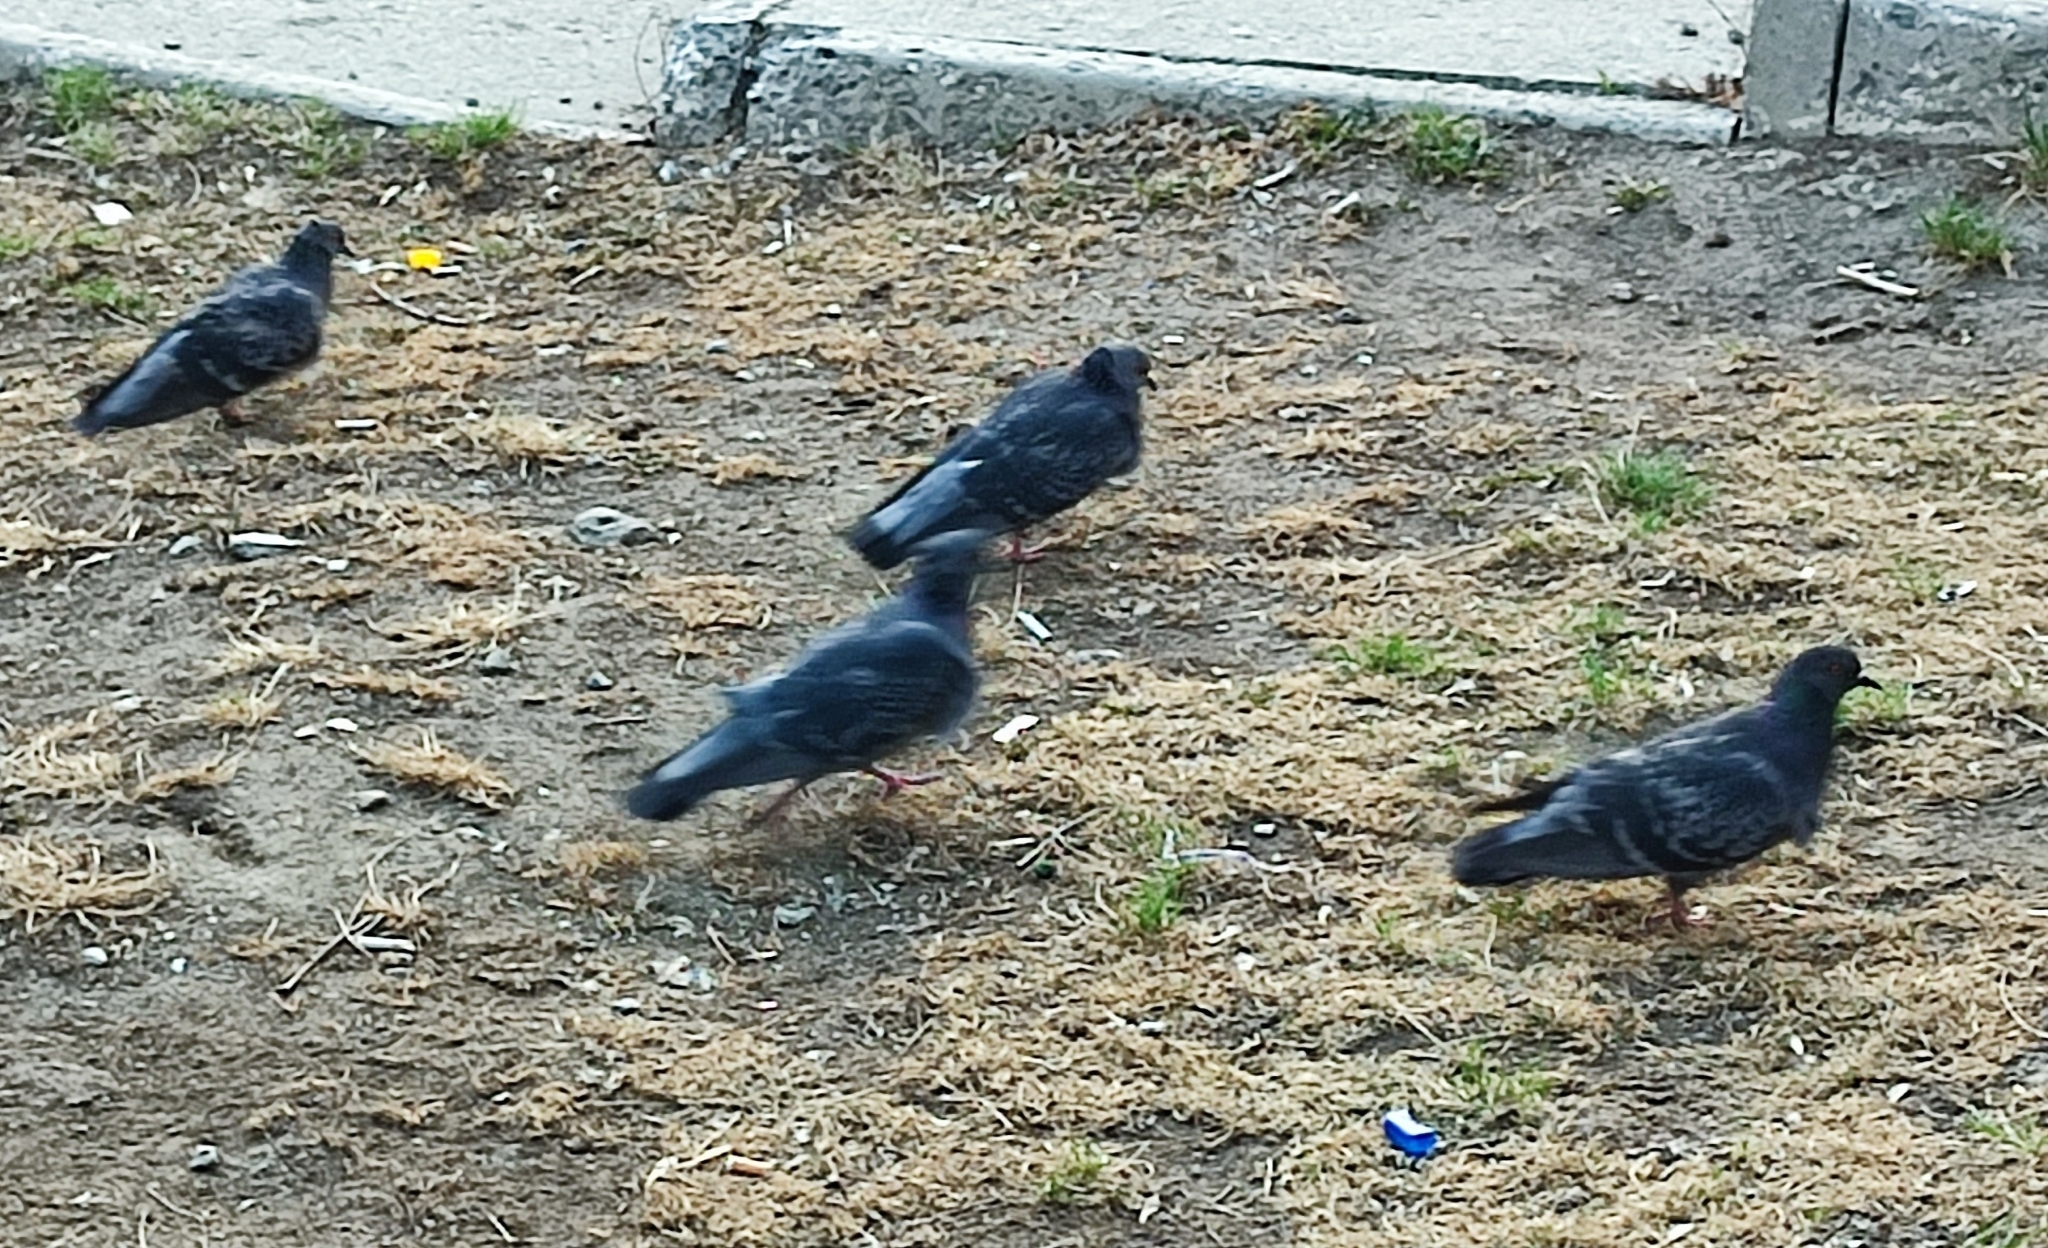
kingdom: Animalia
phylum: Chordata
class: Aves
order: Columbiformes
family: Columbidae
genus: Columba
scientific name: Columba livia
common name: Rock pigeon
